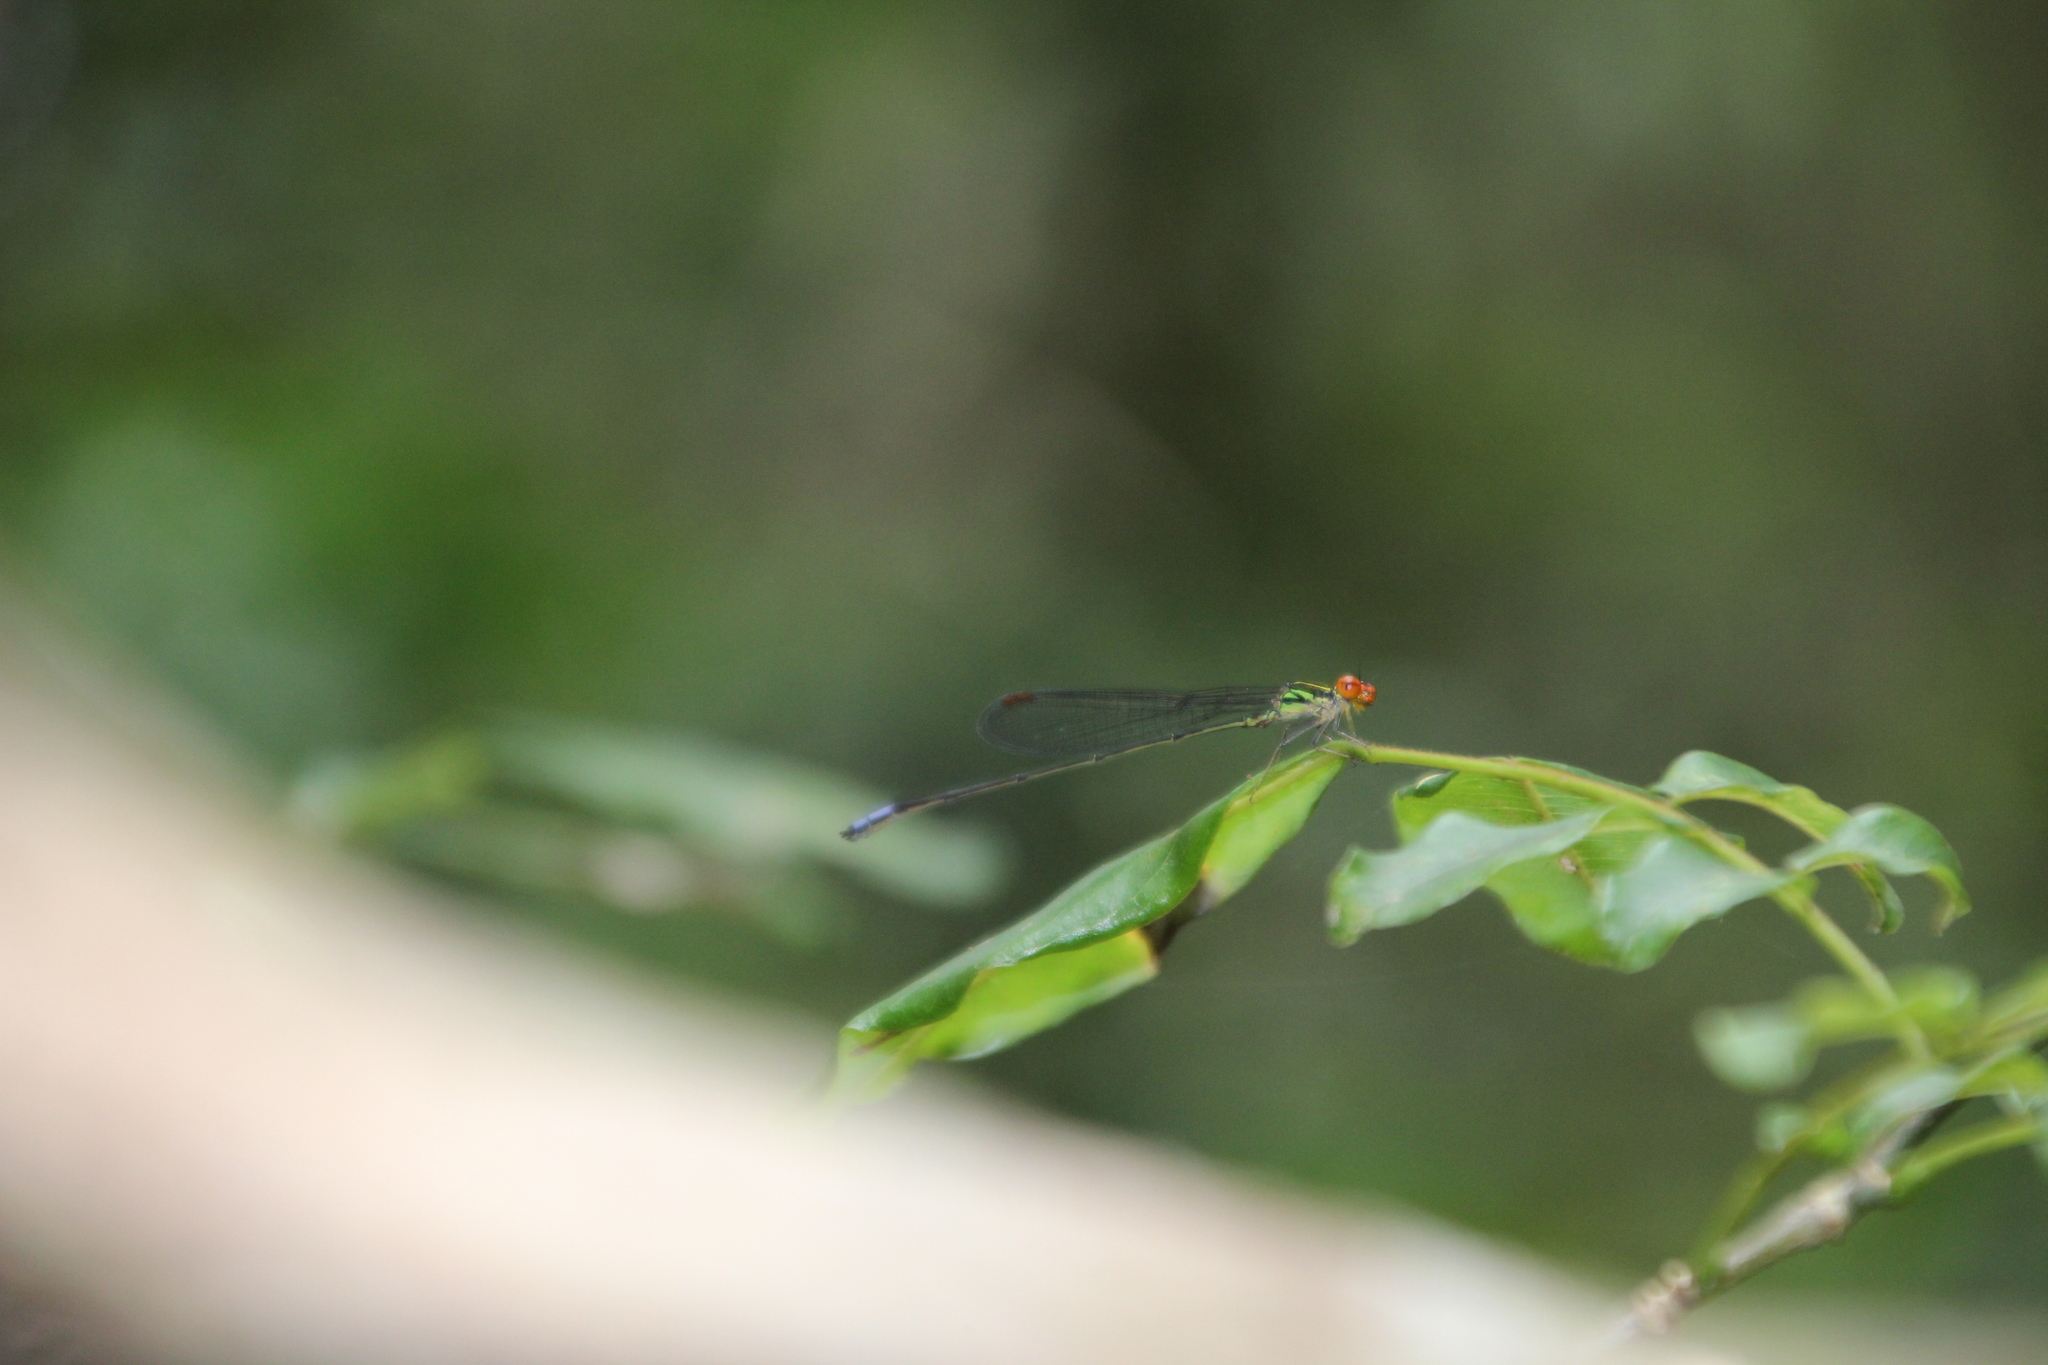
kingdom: Animalia
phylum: Arthropoda
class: Insecta
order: Odonata
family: Coenagrionidae
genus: Pseudagrion
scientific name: Pseudagrion hageni
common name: Painted sprite
